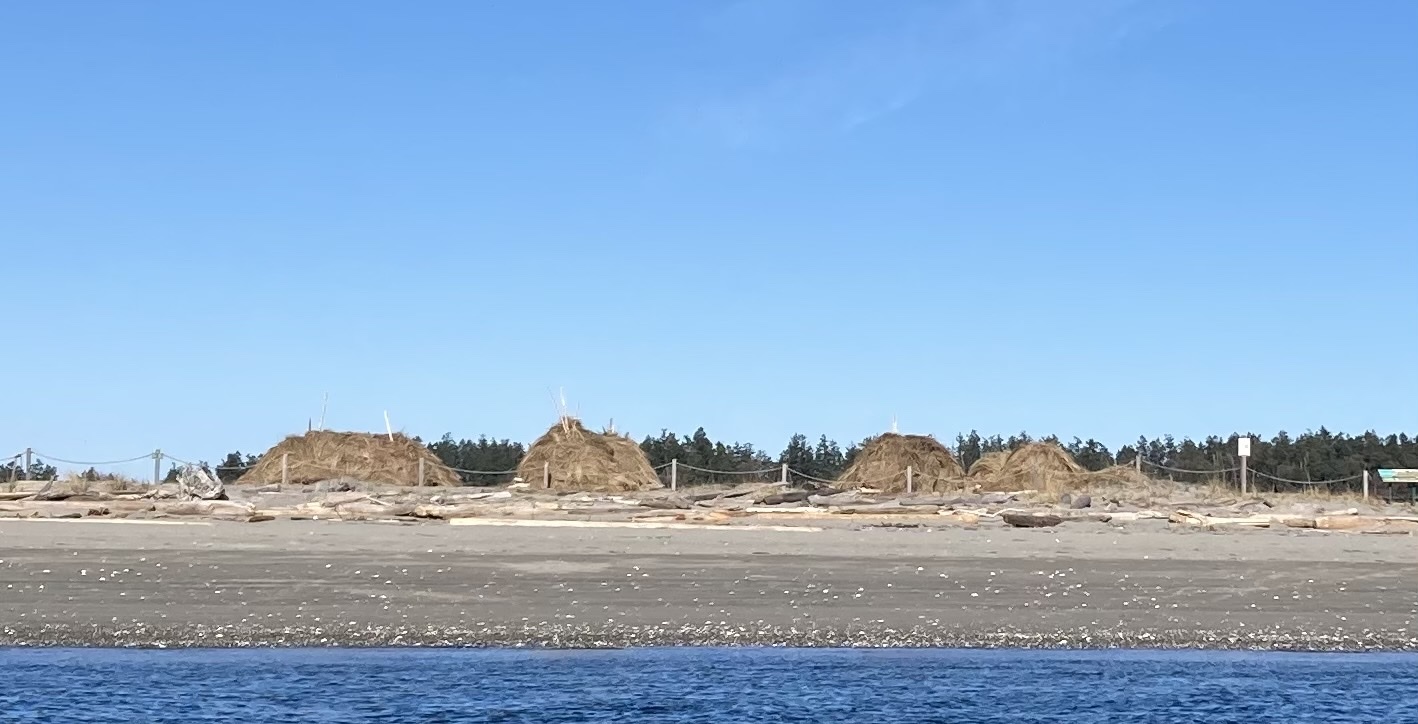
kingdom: Plantae
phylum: Tracheophyta
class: Liliopsida
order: Poales
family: Poaceae
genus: Calamagrostis
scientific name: Calamagrostis arenaria
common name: European beachgrass
